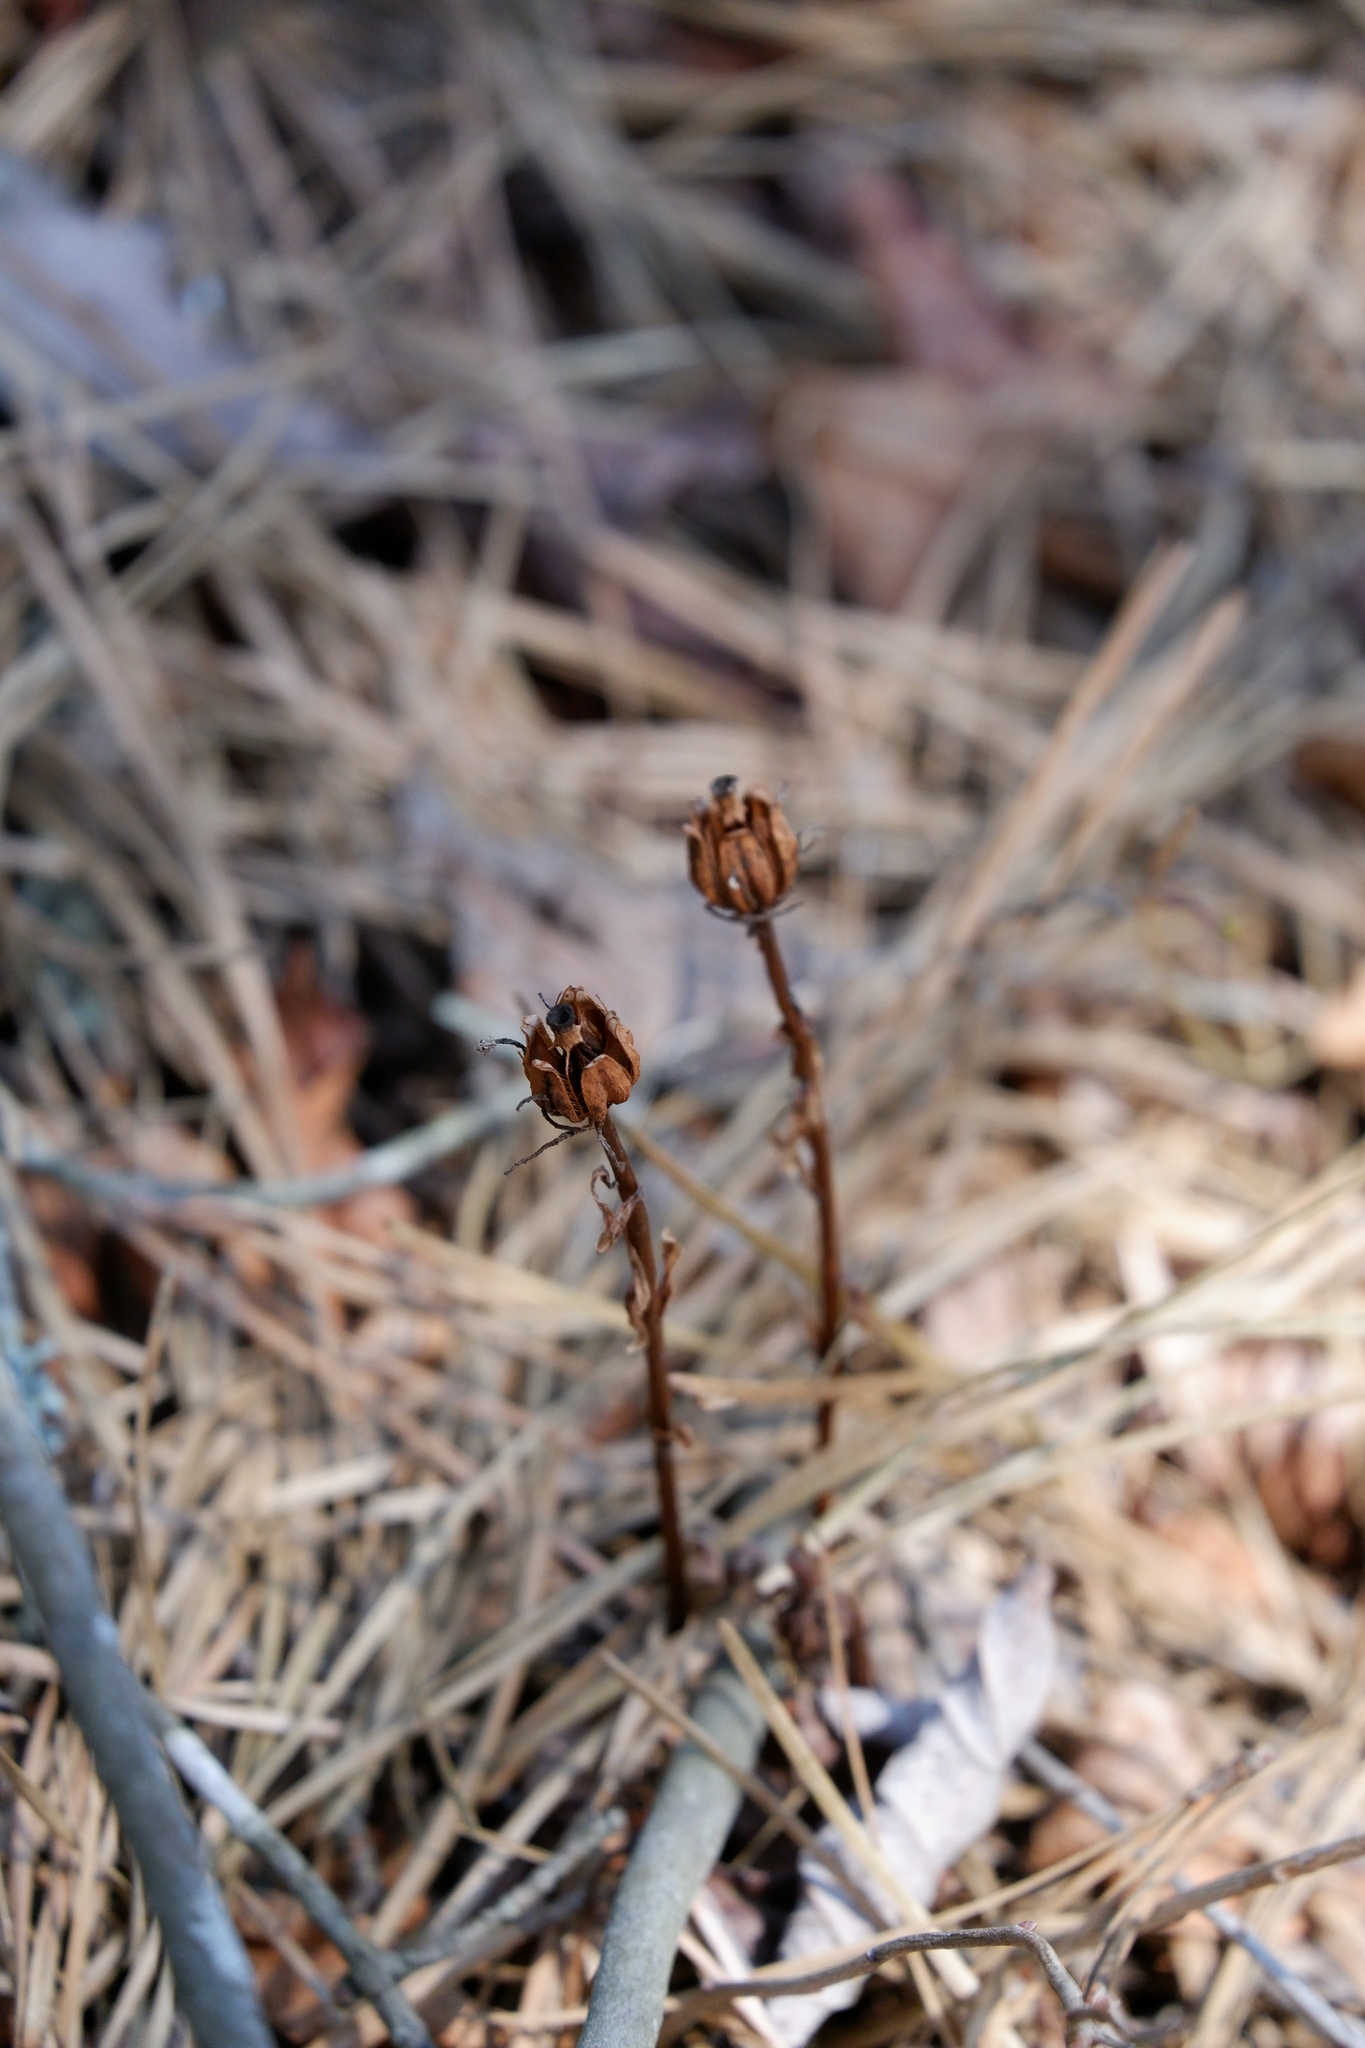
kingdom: Plantae
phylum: Tracheophyta
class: Magnoliopsida
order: Ericales
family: Ericaceae
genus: Monotropa
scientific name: Monotropa uniflora
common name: Convulsion root
